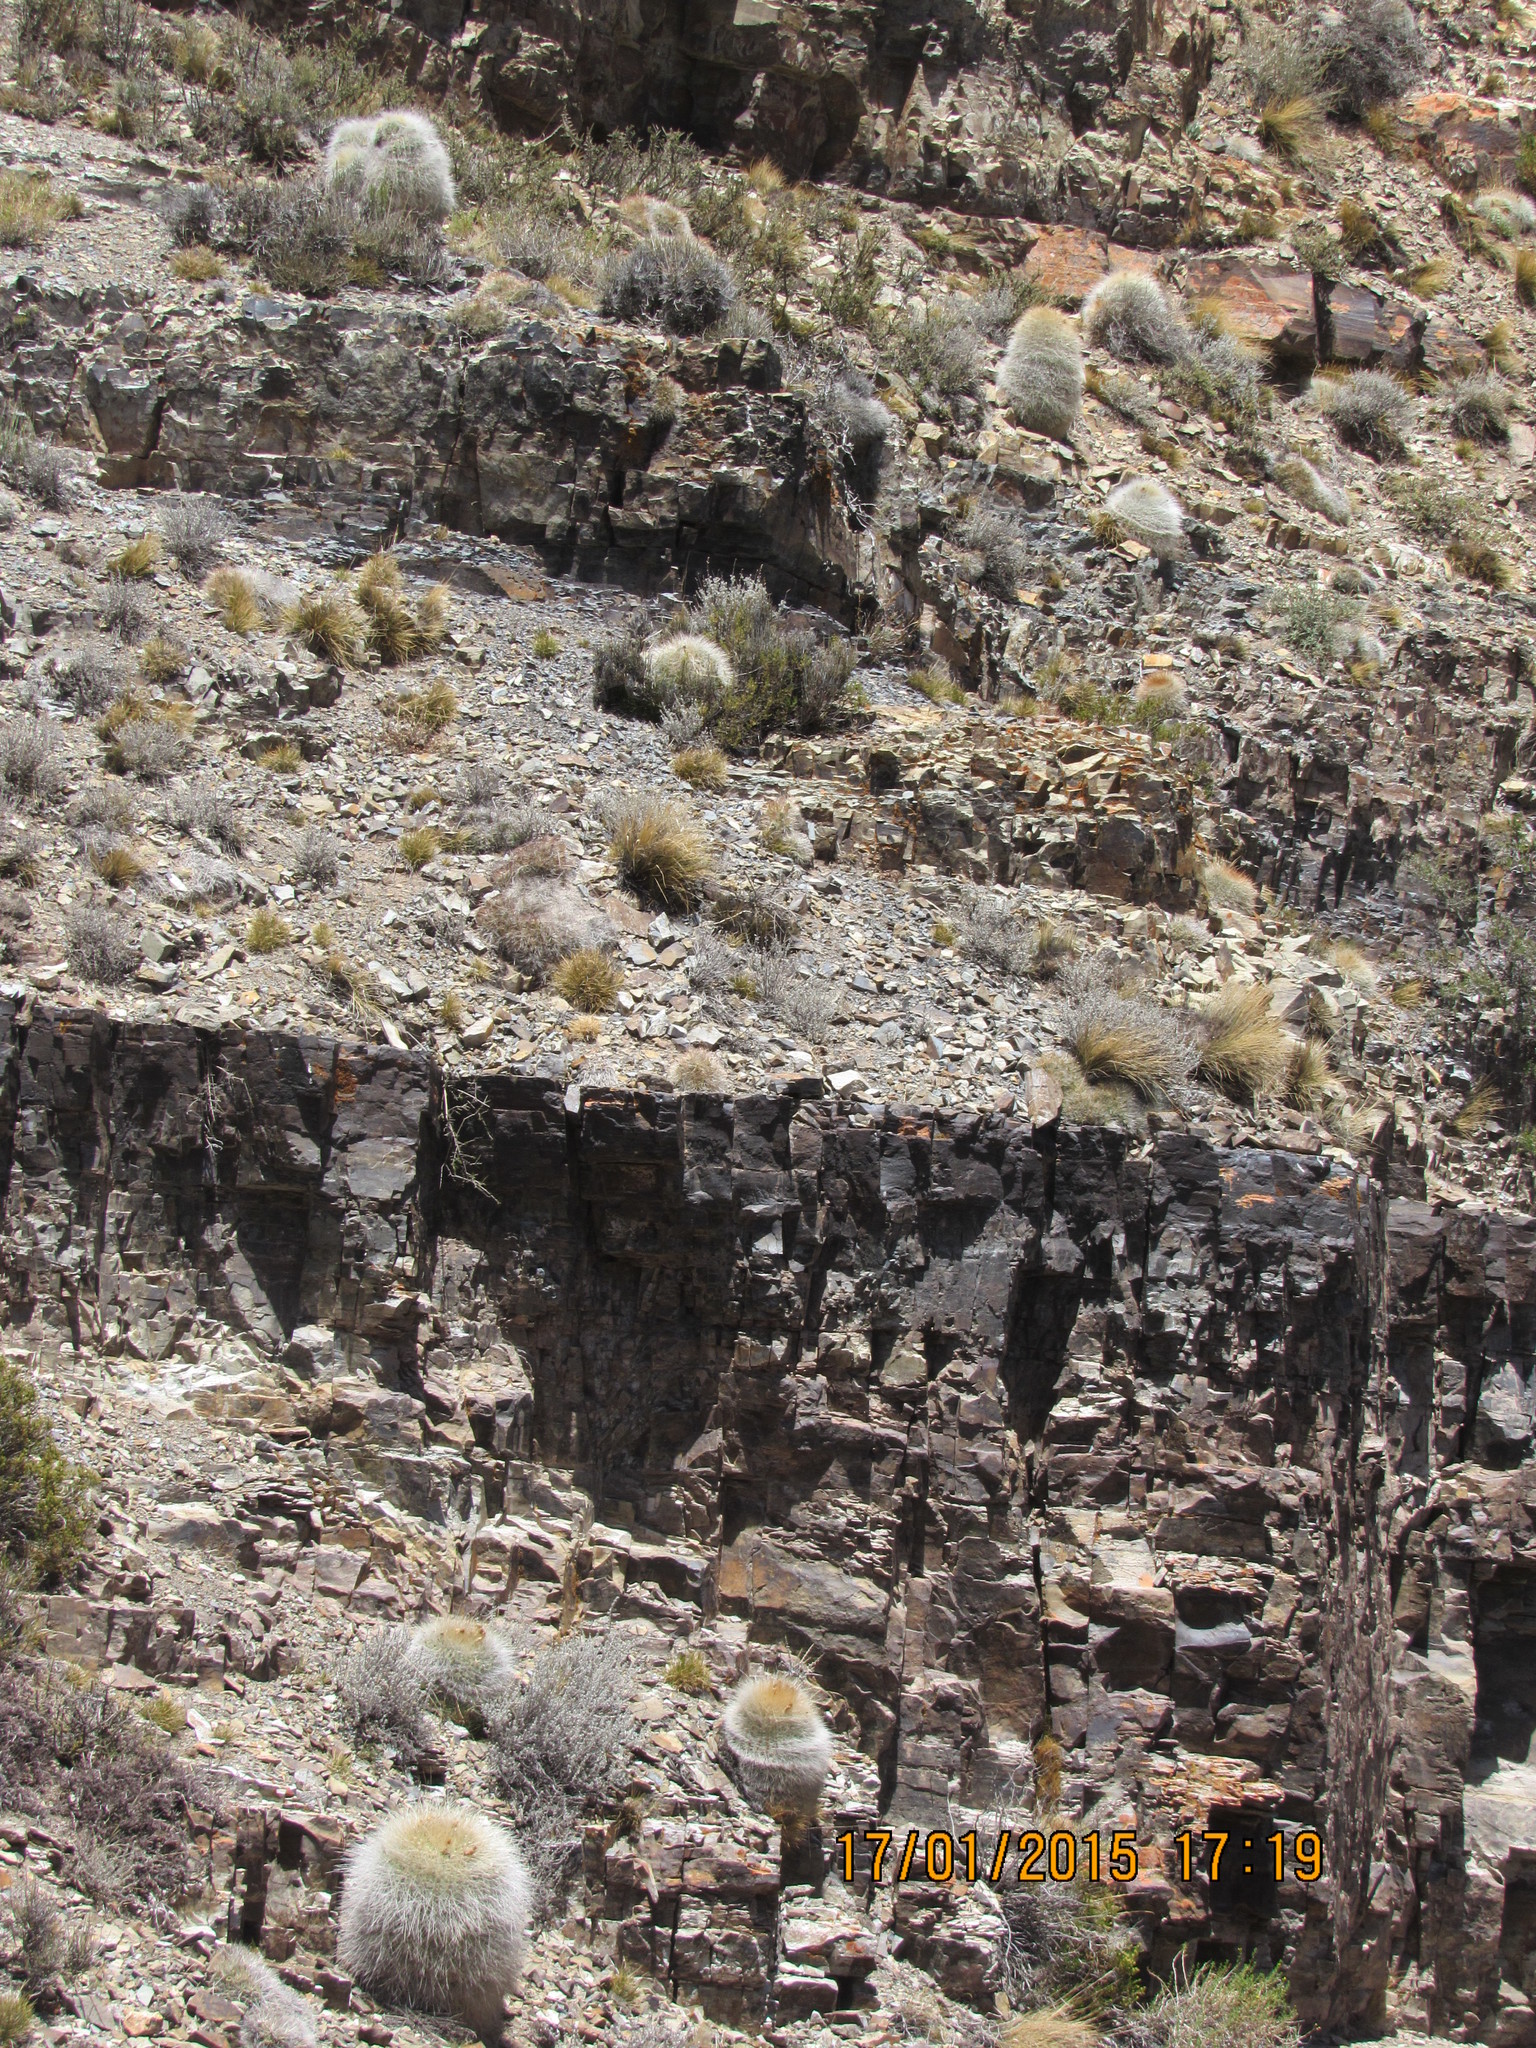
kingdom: Plantae
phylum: Tracheophyta
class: Magnoliopsida
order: Caryophyllales
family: Cactaceae
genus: Soehrensia
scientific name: Soehrensia formosa
